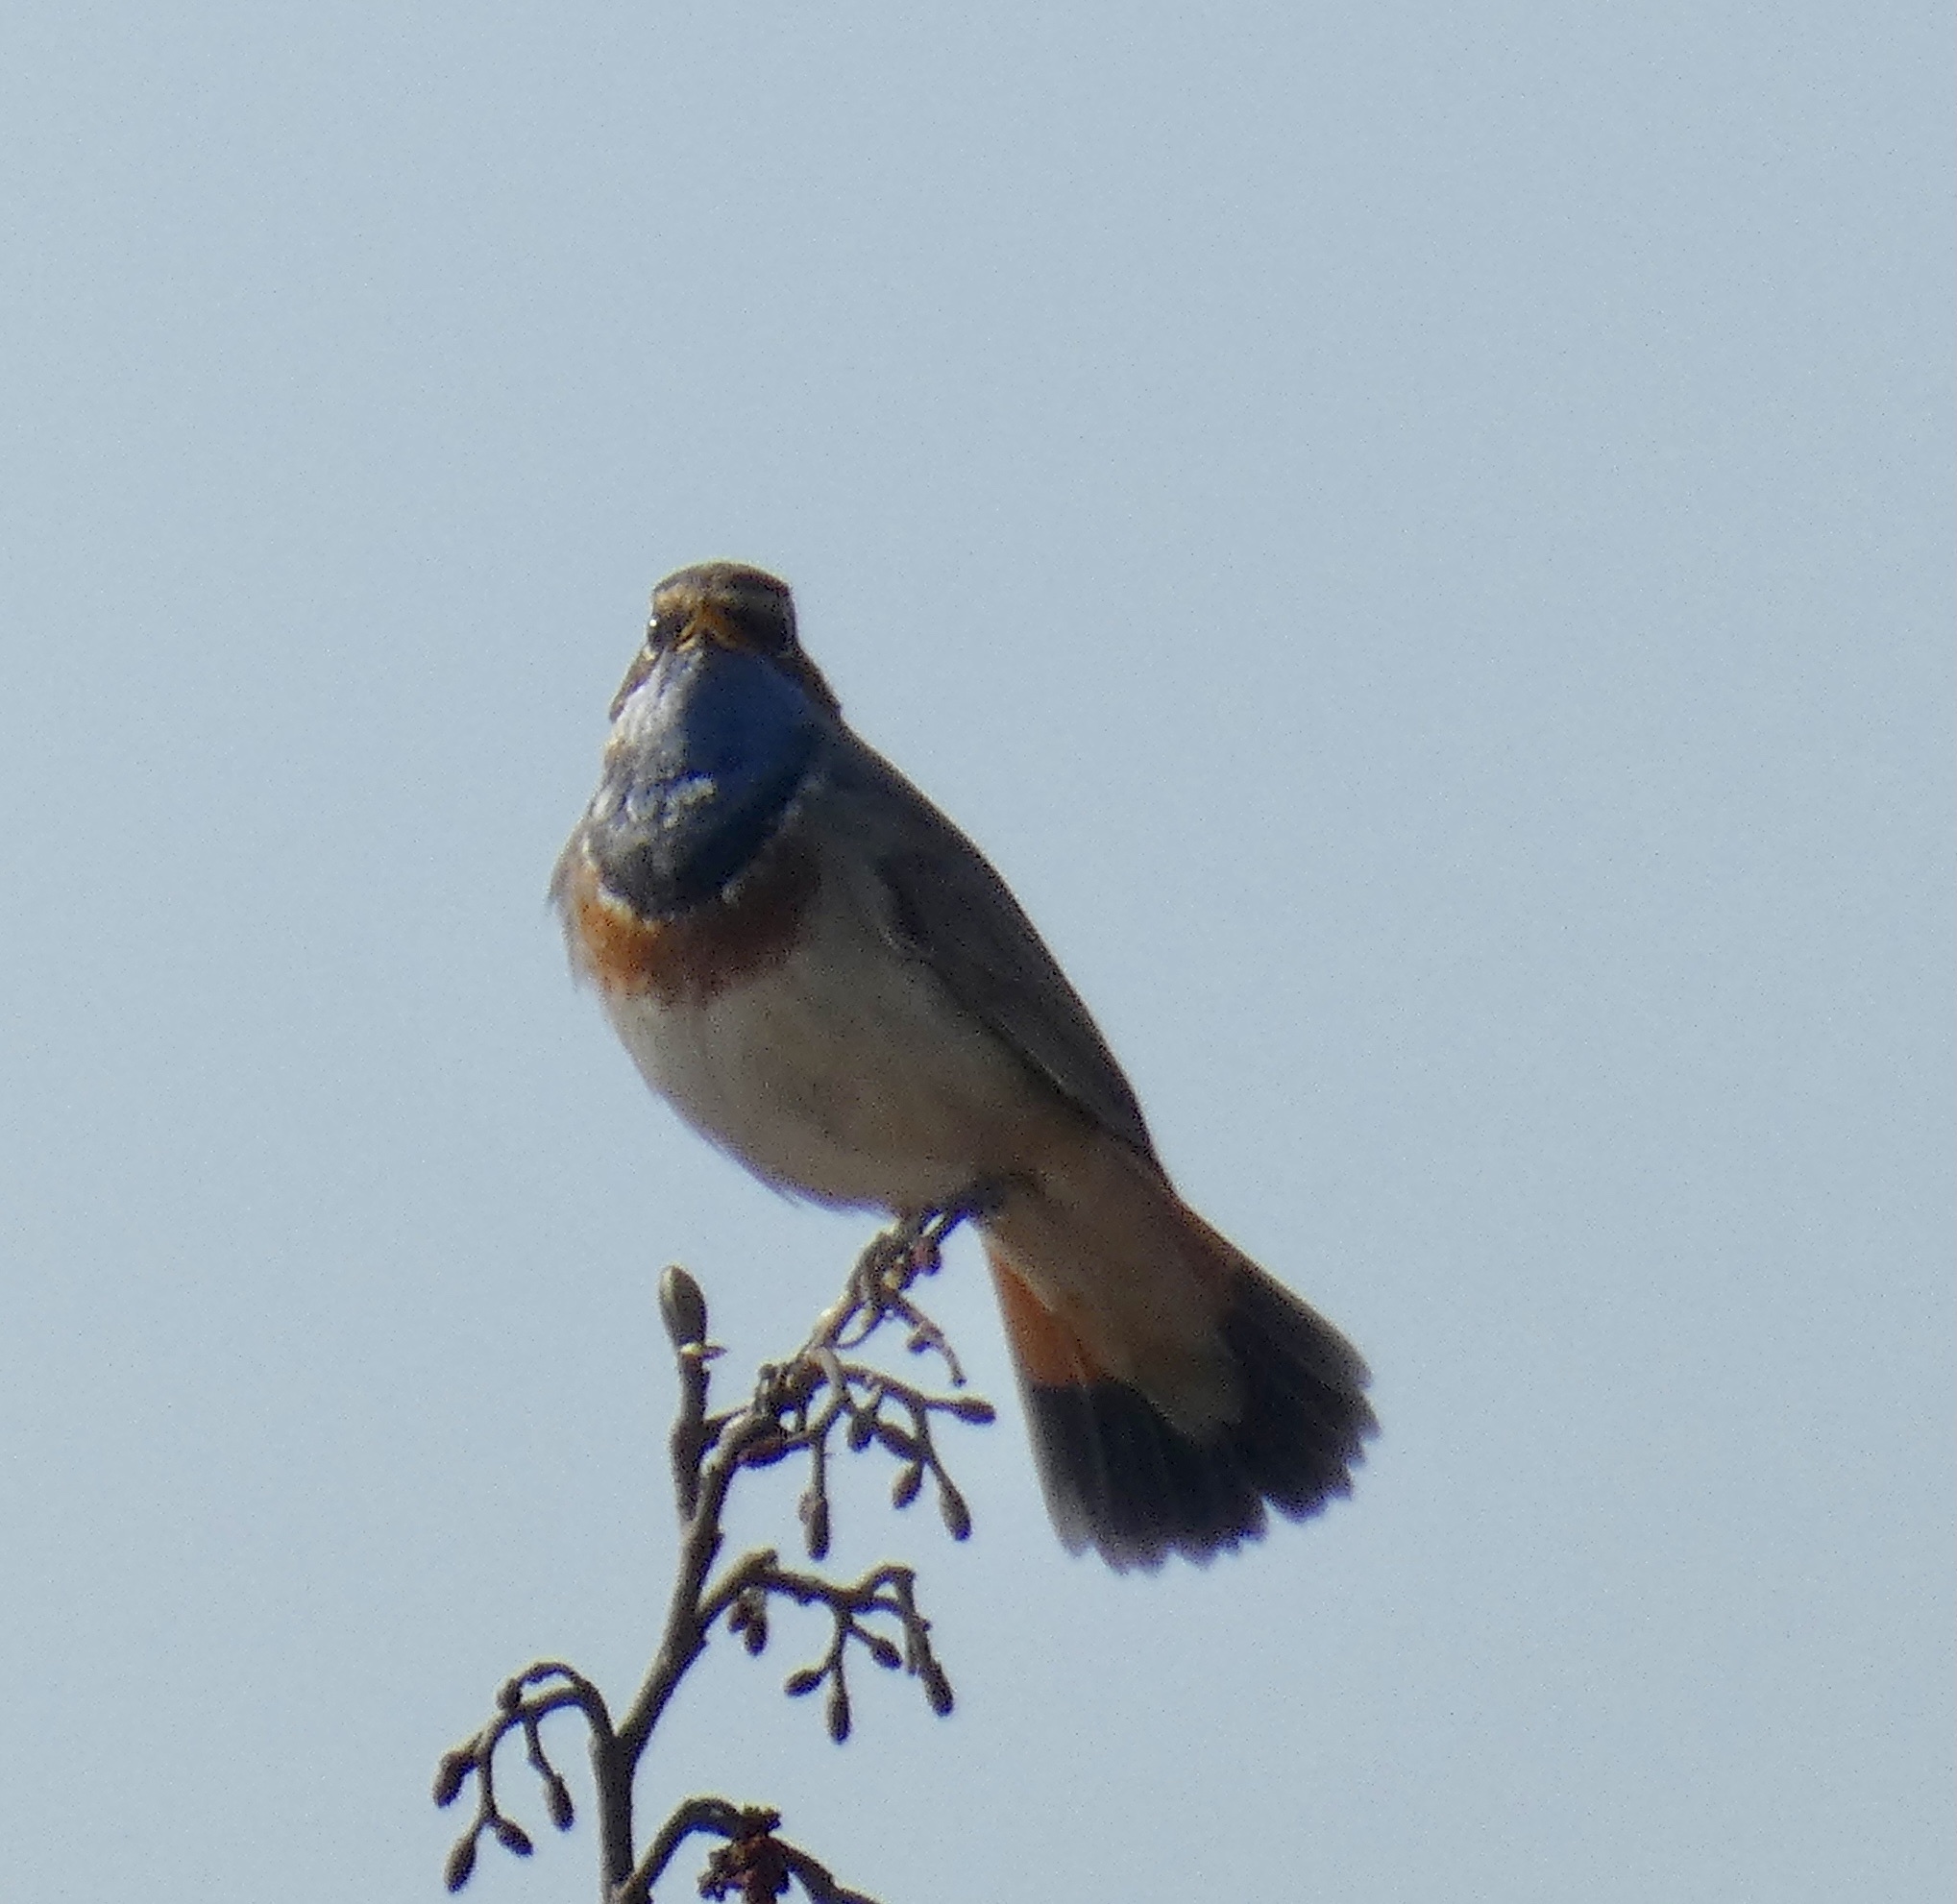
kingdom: Animalia
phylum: Chordata
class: Aves
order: Passeriformes
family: Muscicapidae
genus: Luscinia
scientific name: Luscinia svecica
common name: Bluethroat
